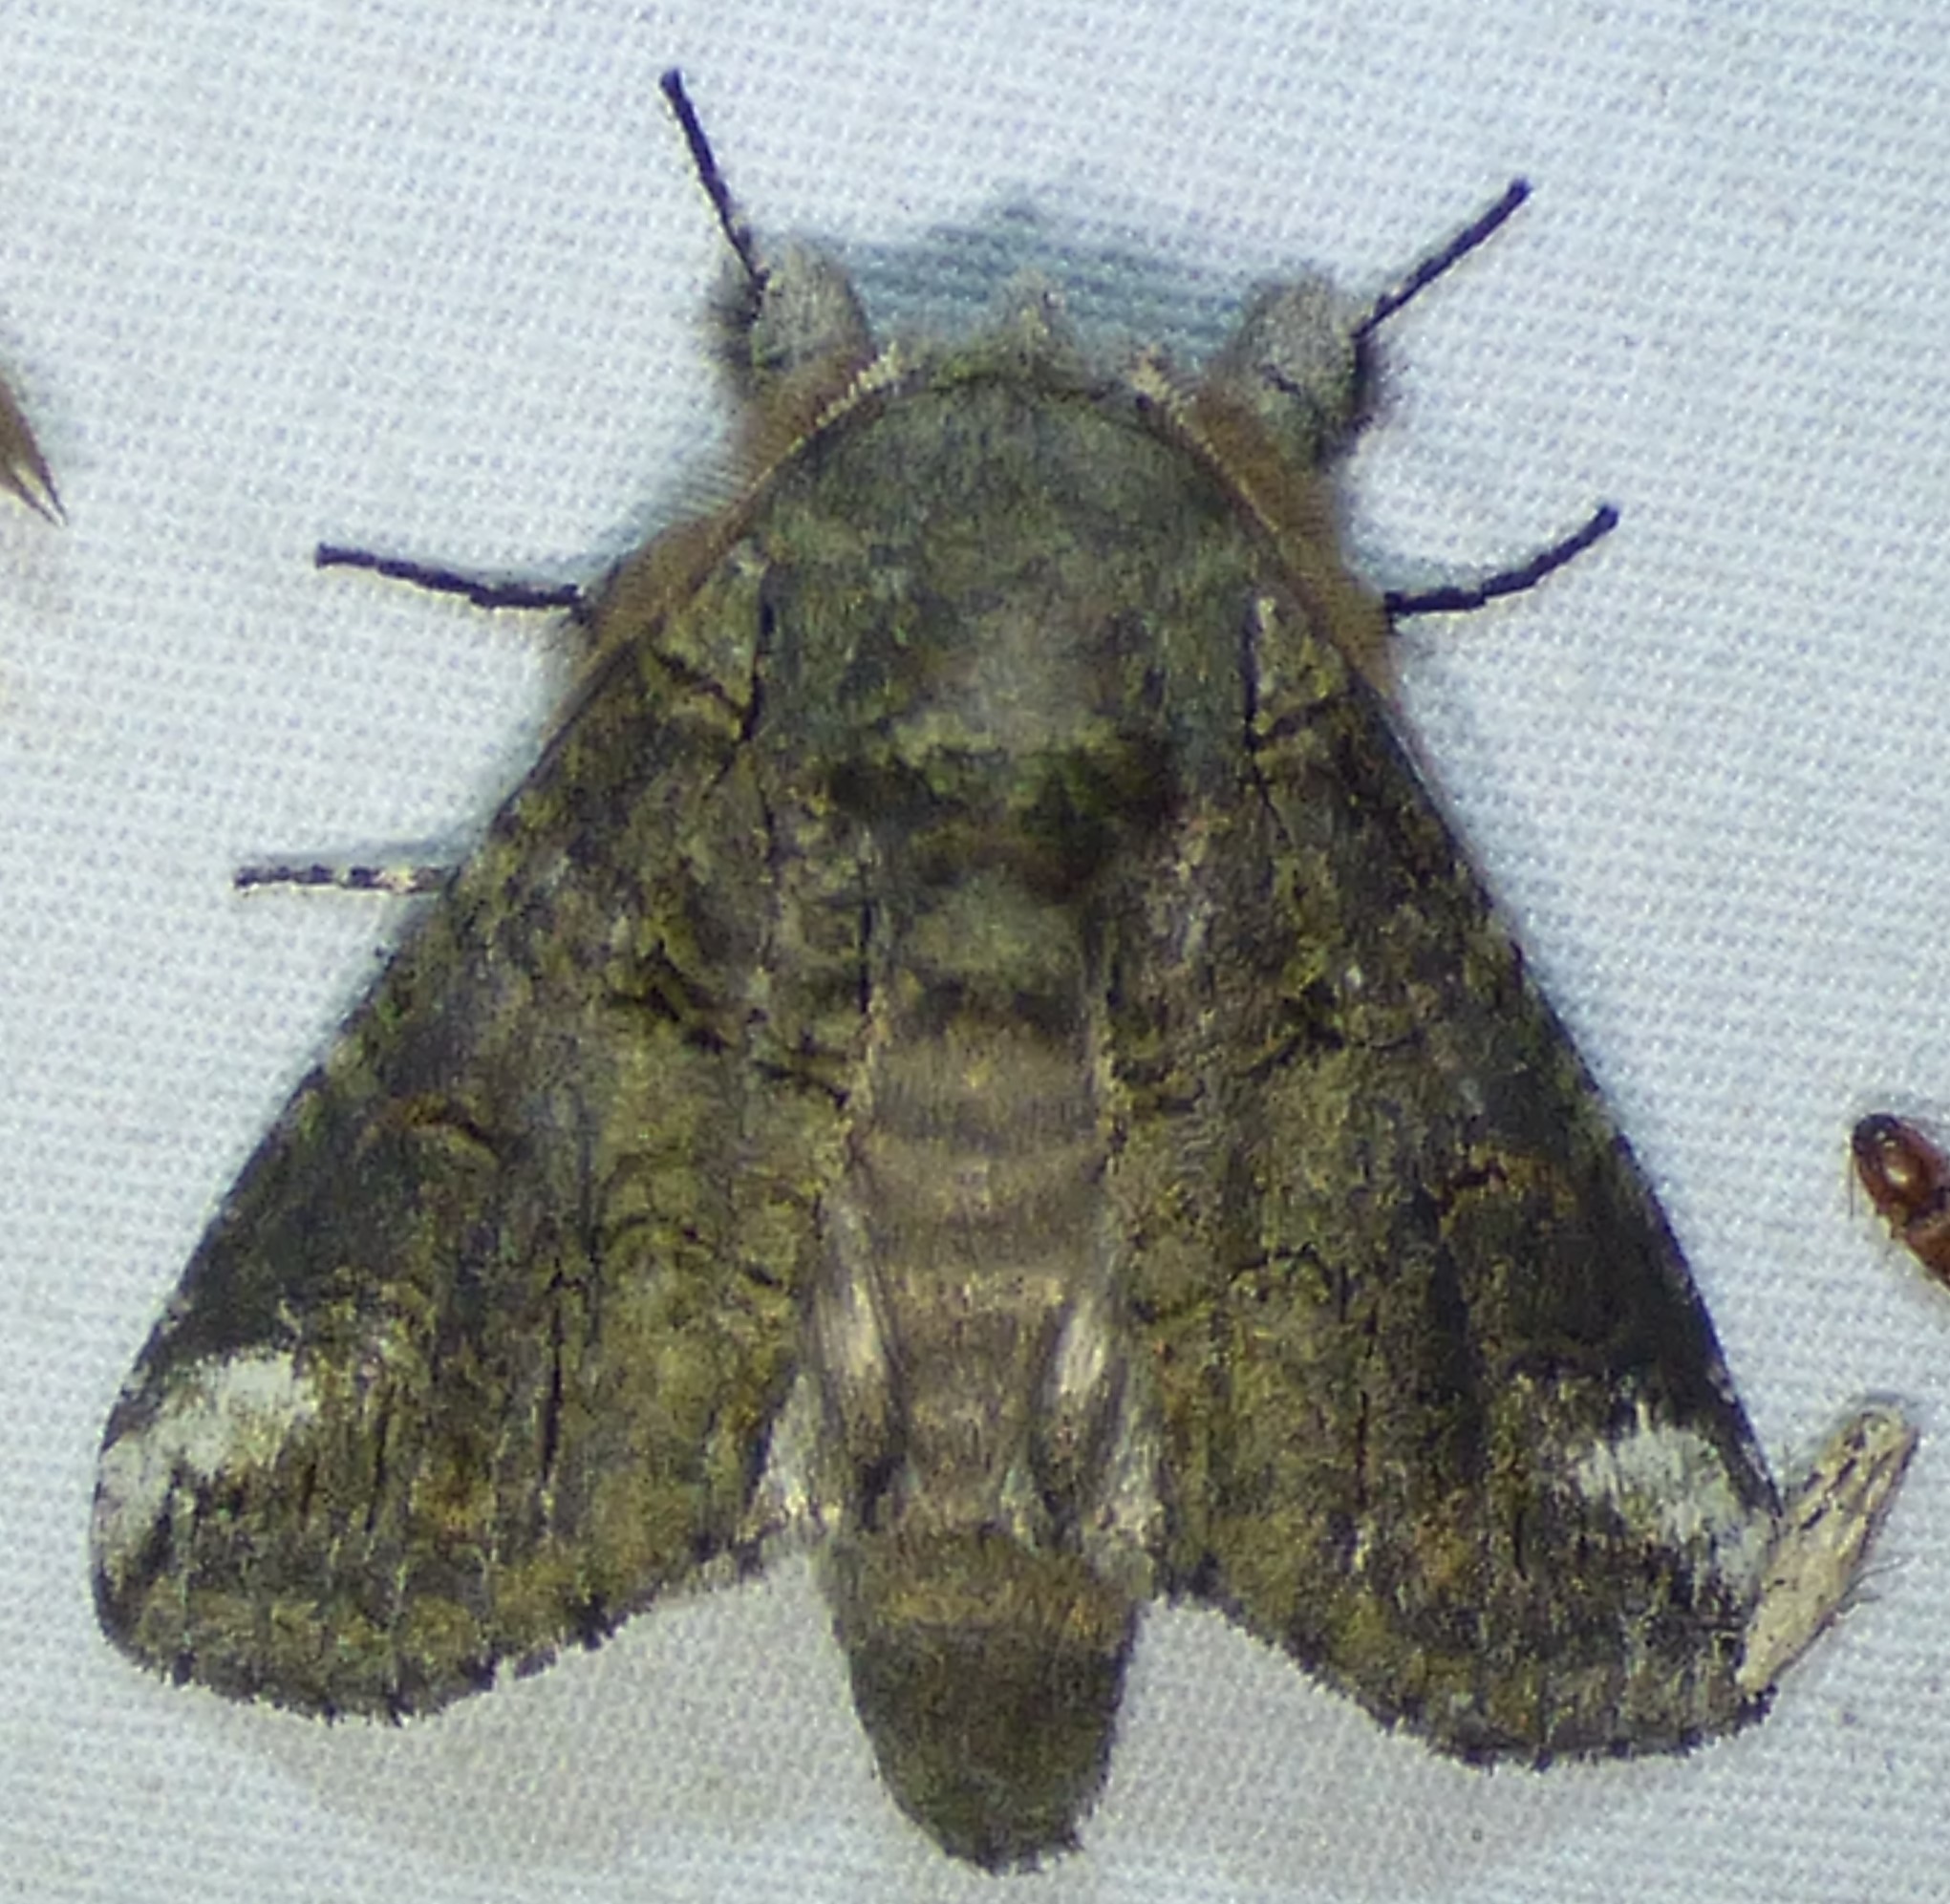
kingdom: Animalia
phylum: Arthropoda
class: Insecta
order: Lepidoptera
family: Notodontidae
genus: Heterocampa
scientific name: Heterocampa obliqua
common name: Oblique heterocampa
